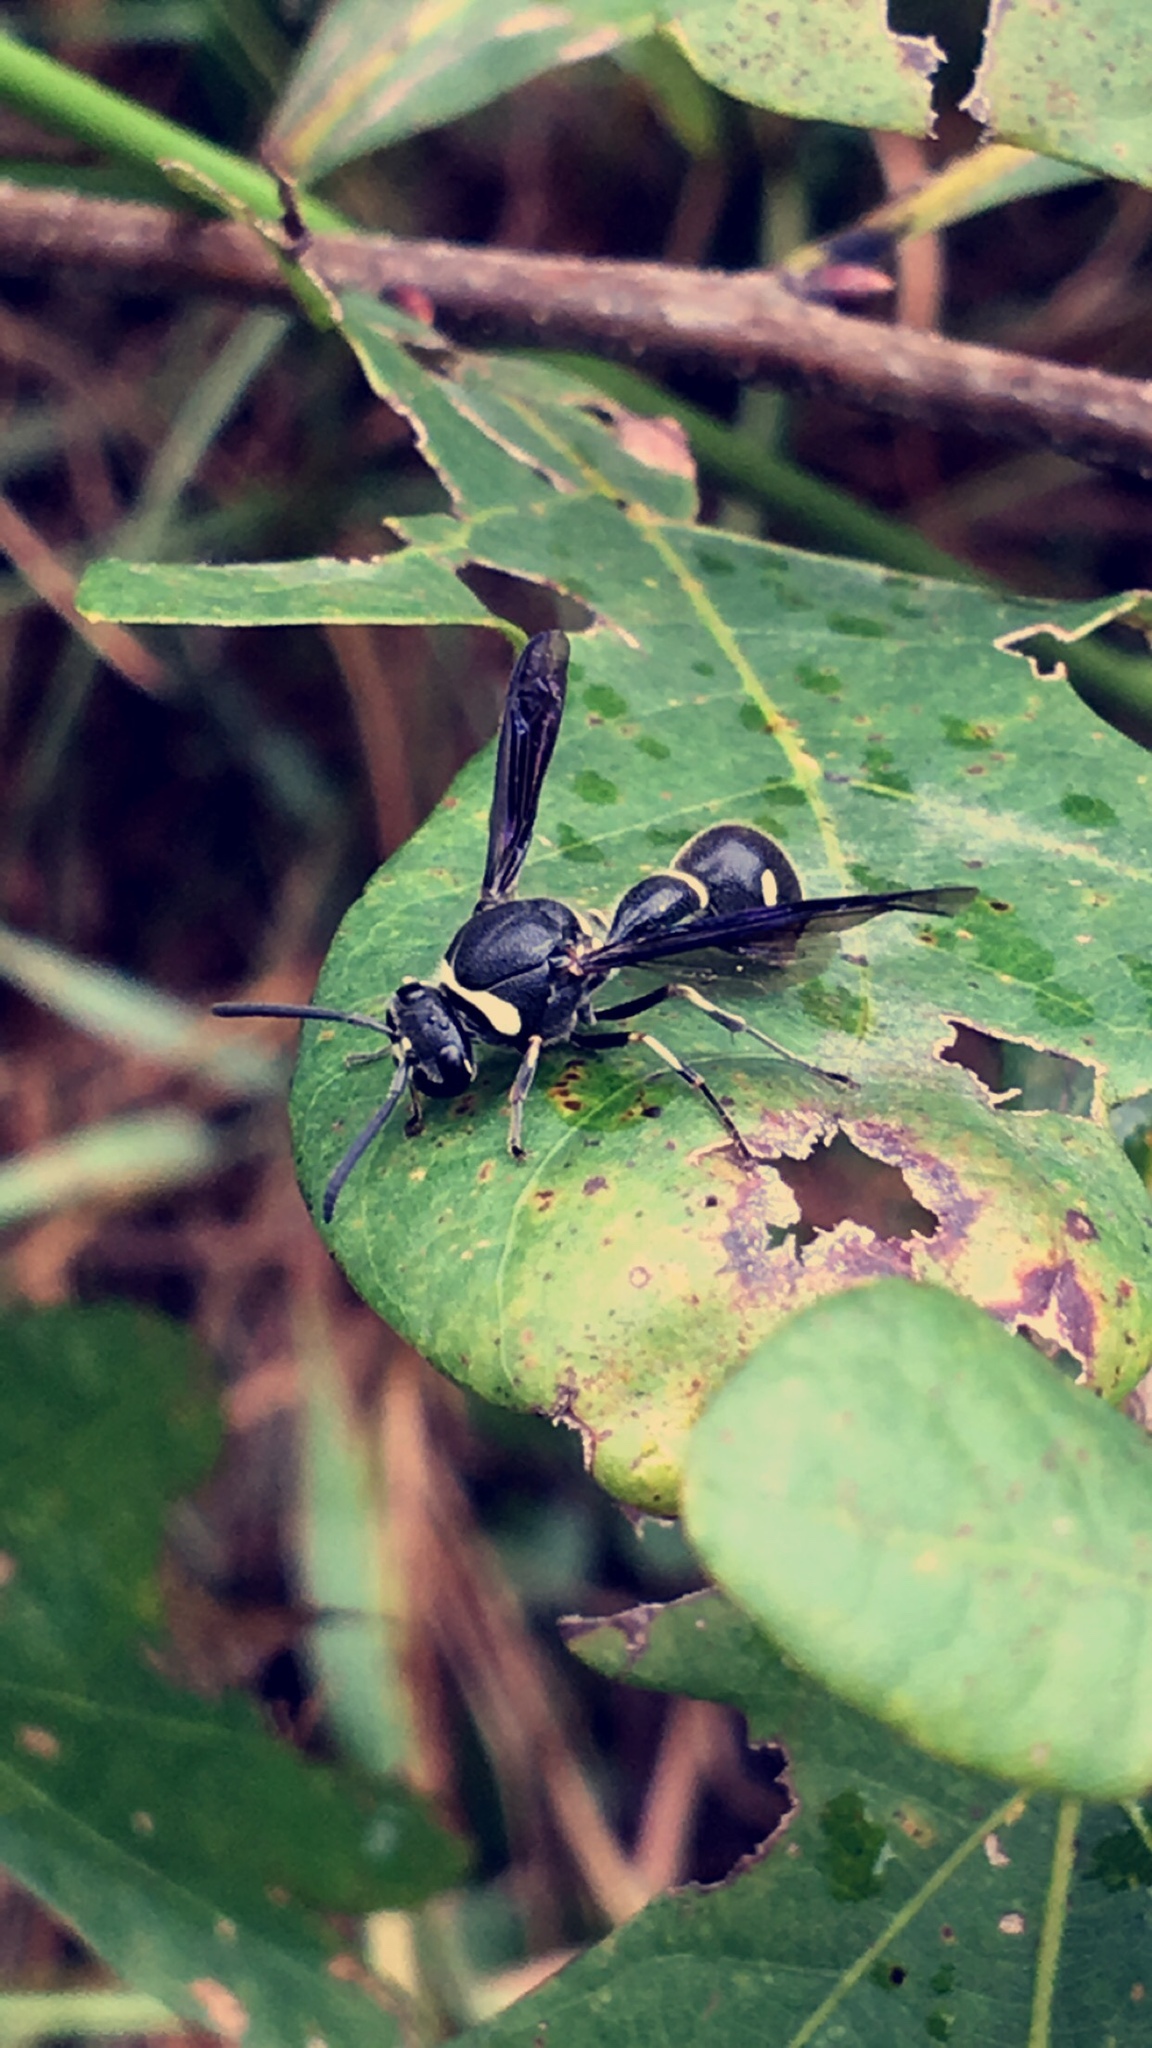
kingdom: Animalia
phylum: Arthropoda
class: Insecta
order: Hymenoptera
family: Vespidae
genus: Eumenes
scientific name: Eumenes fraternus
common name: Fraternal potter wasp
